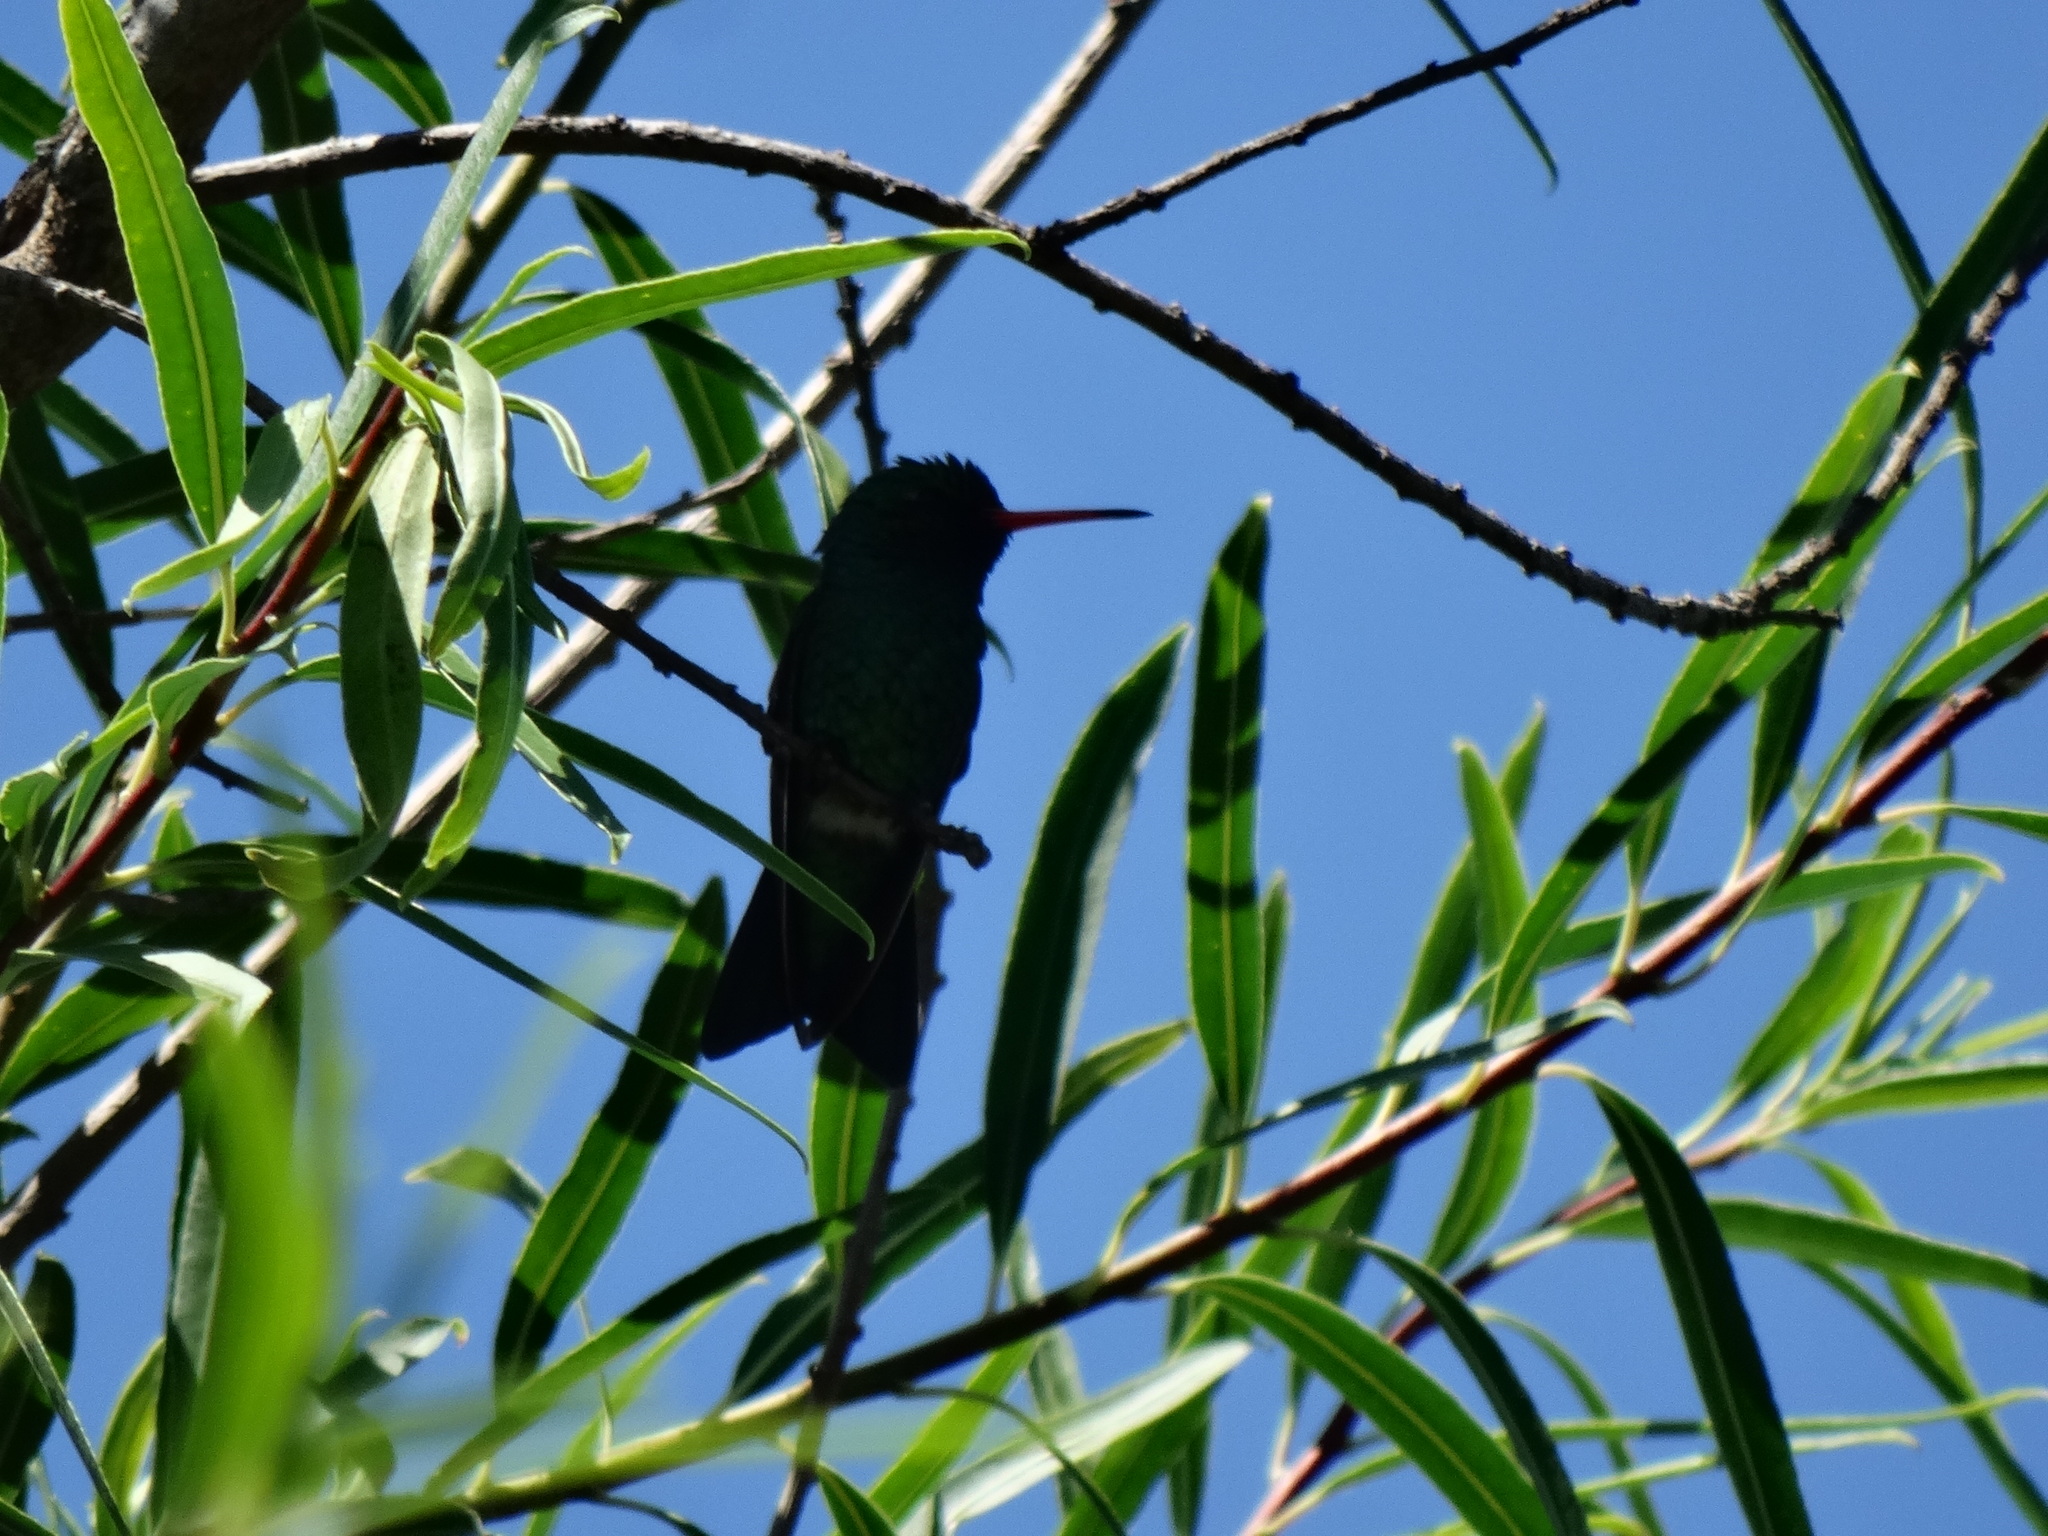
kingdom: Animalia
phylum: Chordata
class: Aves
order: Apodiformes
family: Trochilidae
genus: Chlorostilbon
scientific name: Chlorostilbon lucidus
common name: Glittering-bellied emerald
